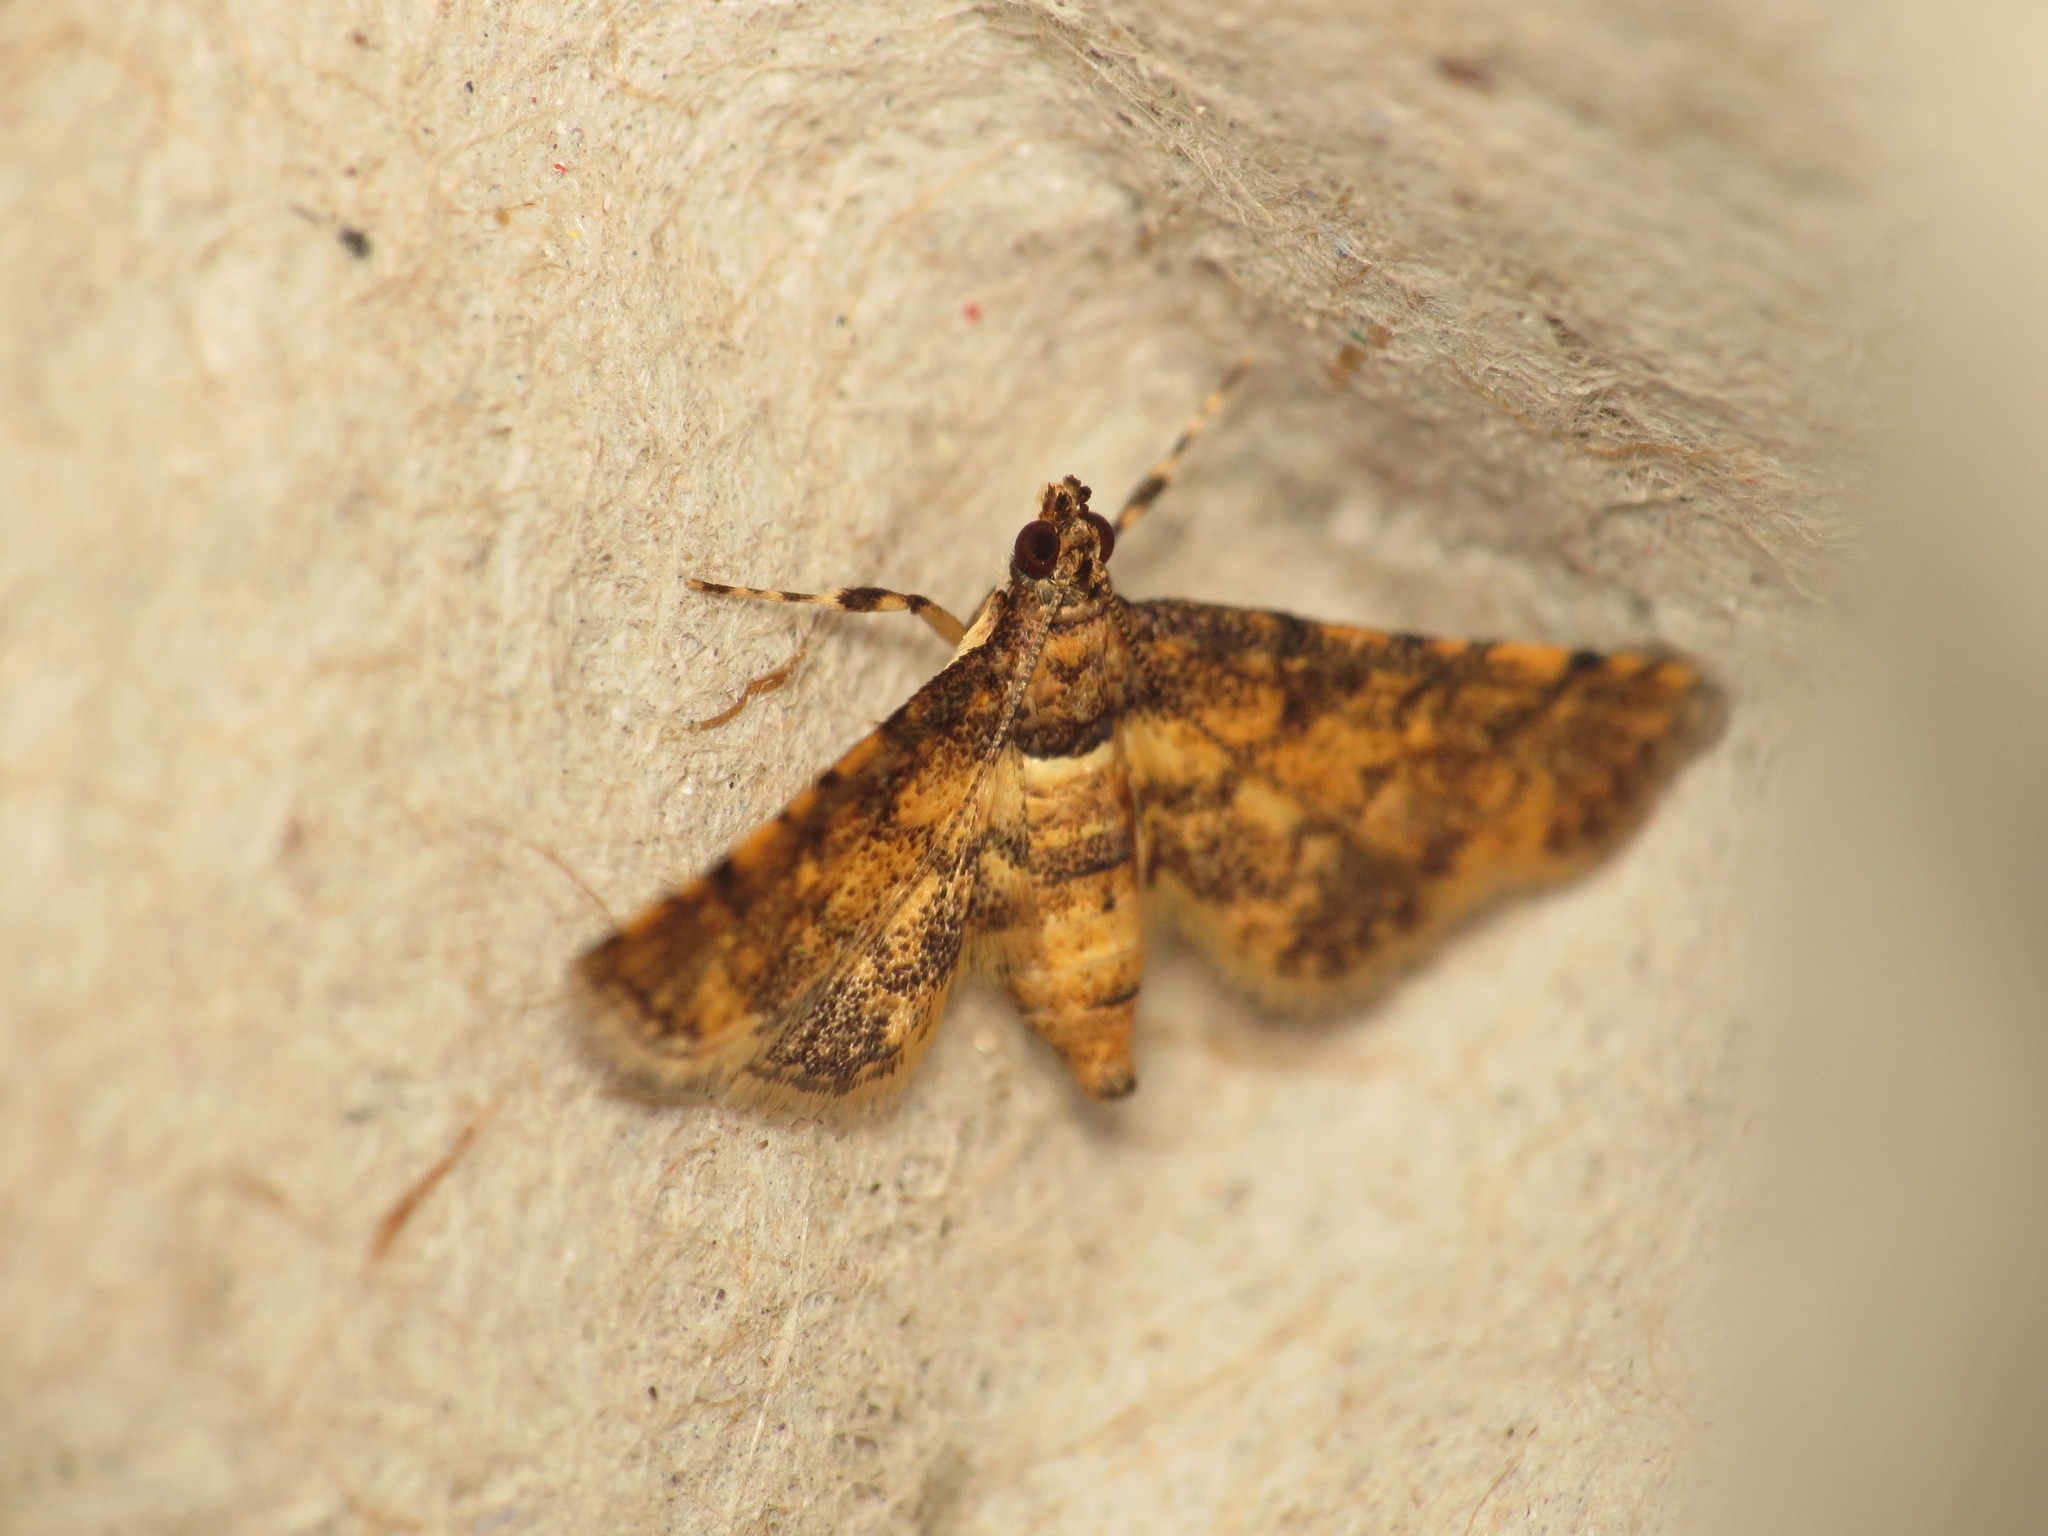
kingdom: Animalia
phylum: Arthropoda
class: Insecta
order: Lepidoptera
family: Crambidae
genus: Metasia
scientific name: Metasia tiasalis
